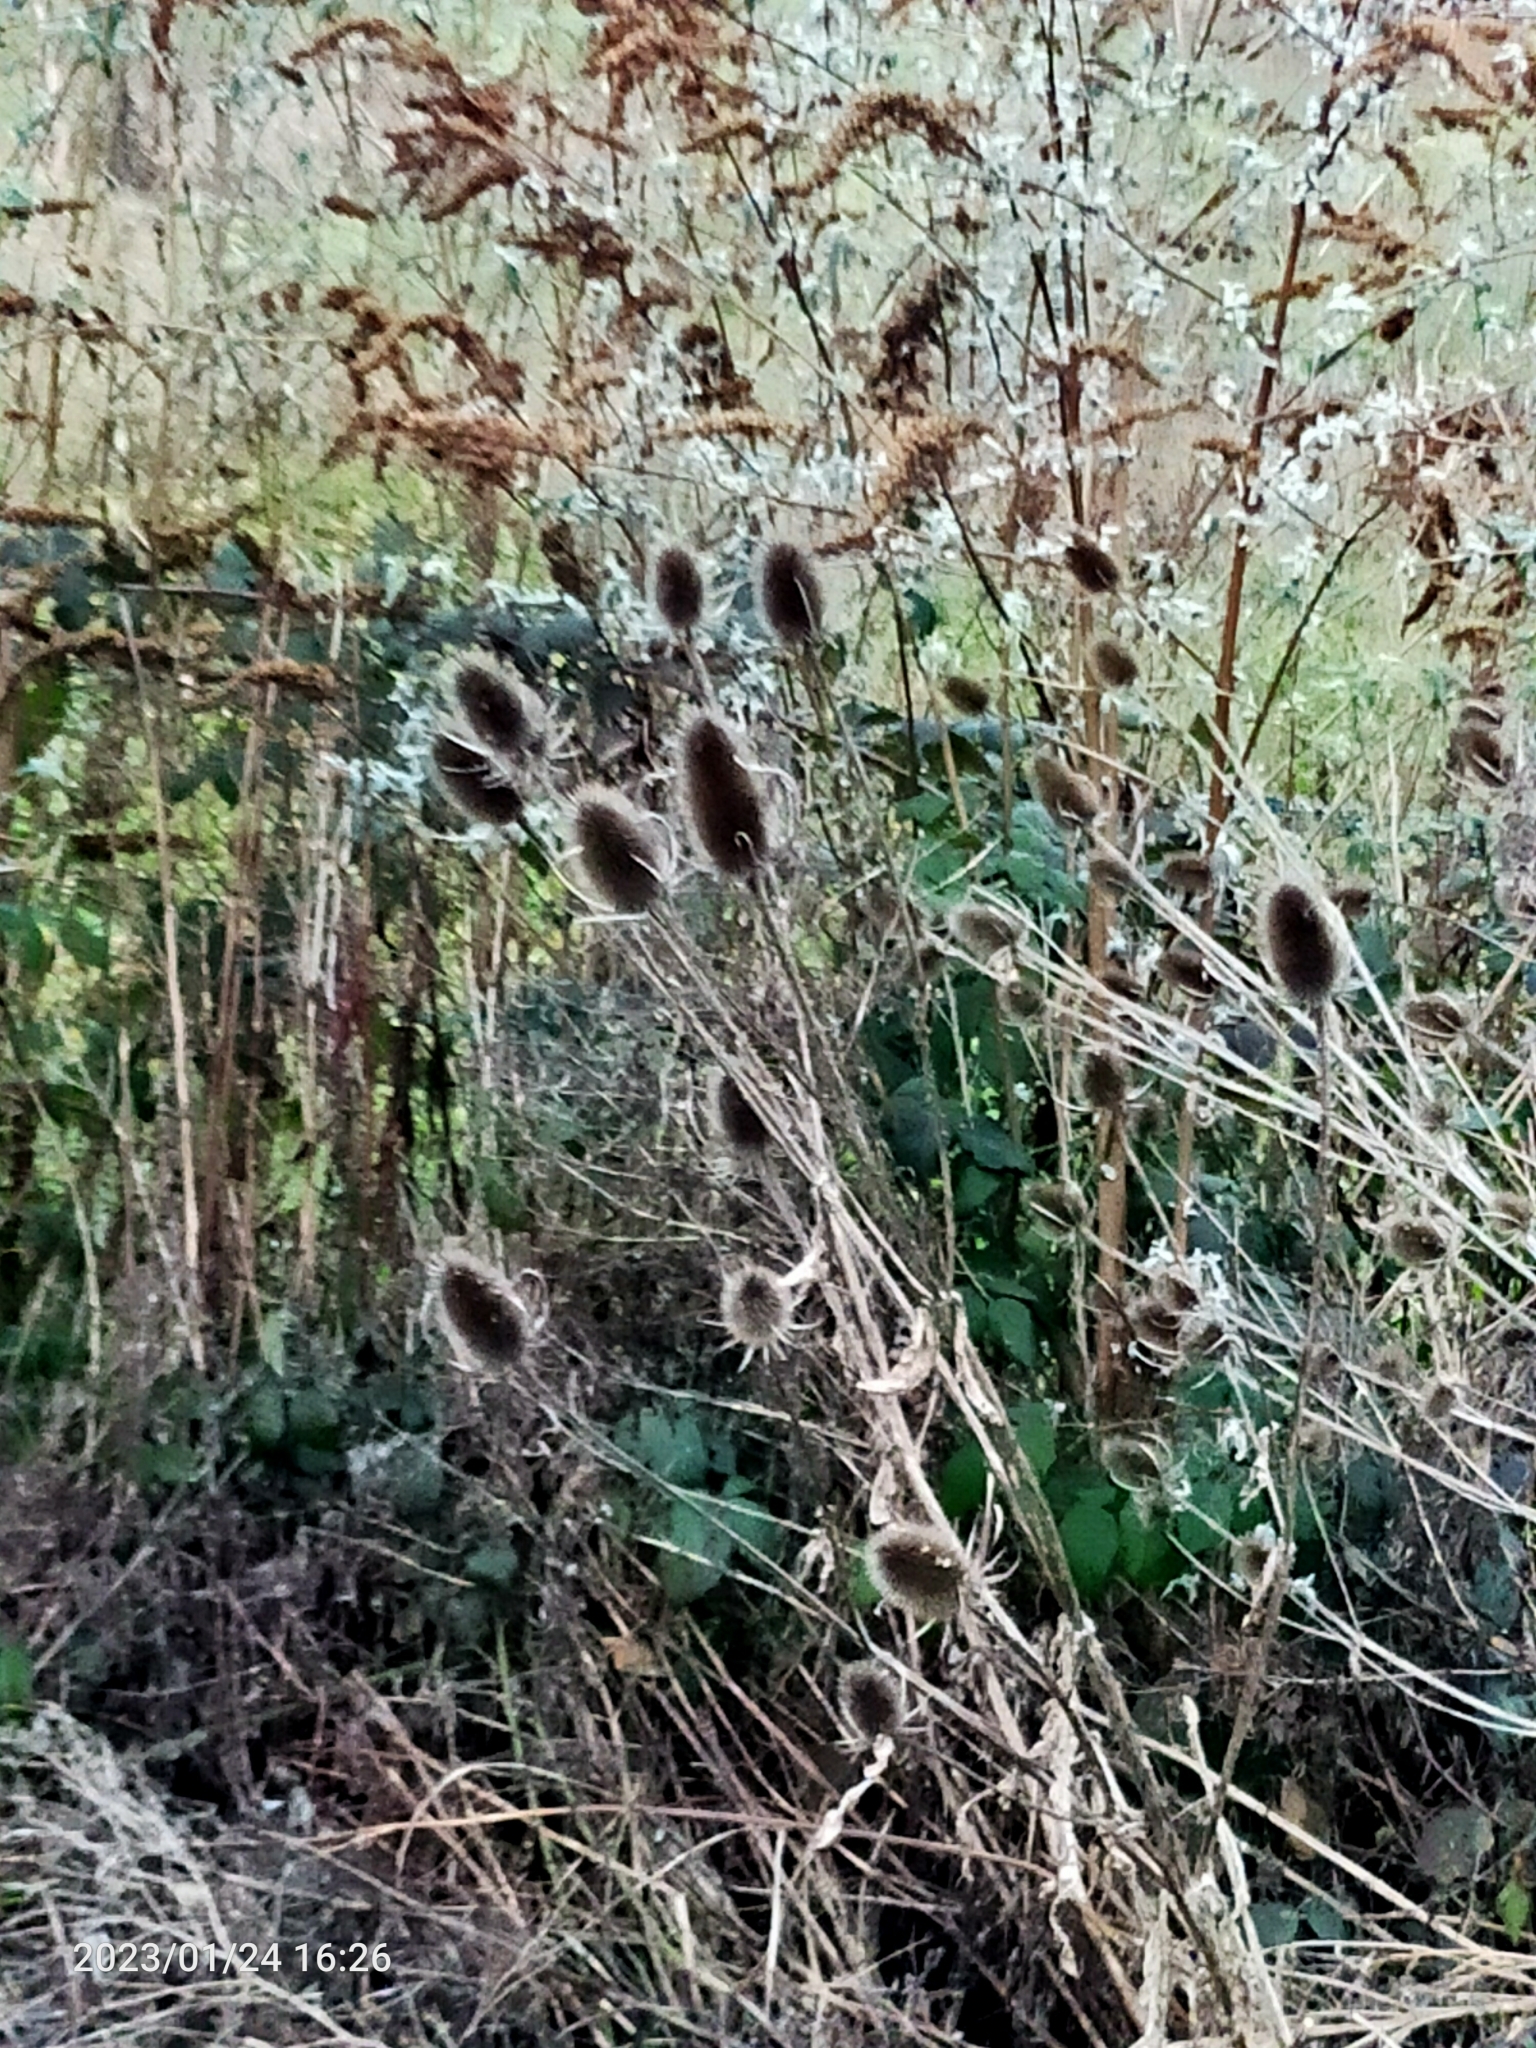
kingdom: Plantae
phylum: Tracheophyta
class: Magnoliopsida
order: Dipsacales
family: Caprifoliaceae
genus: Dipsacus
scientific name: Dipsacus fullonum
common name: Teasel
